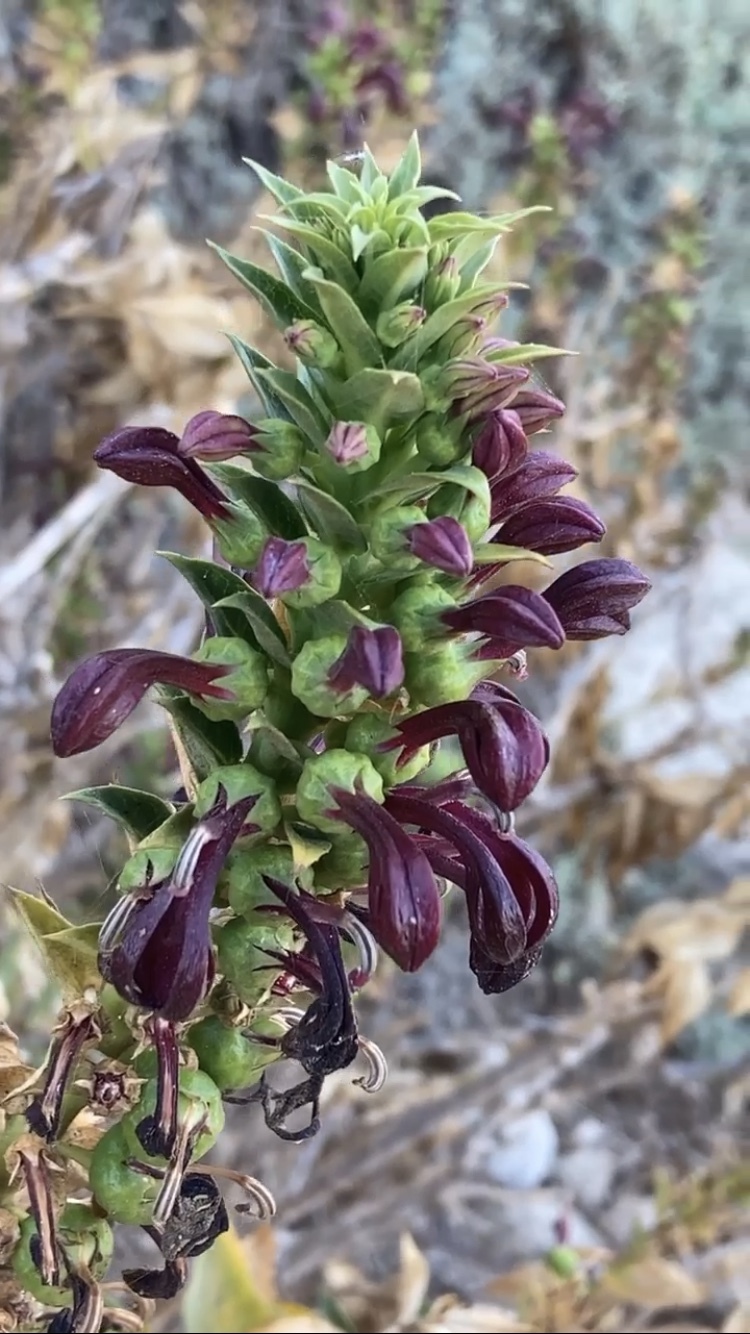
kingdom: Plantae
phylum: Tracheophyta
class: Magnoliopsida
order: Asterales
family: Campanulaceae
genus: Lobelia
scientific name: Lobelia polyphylla
